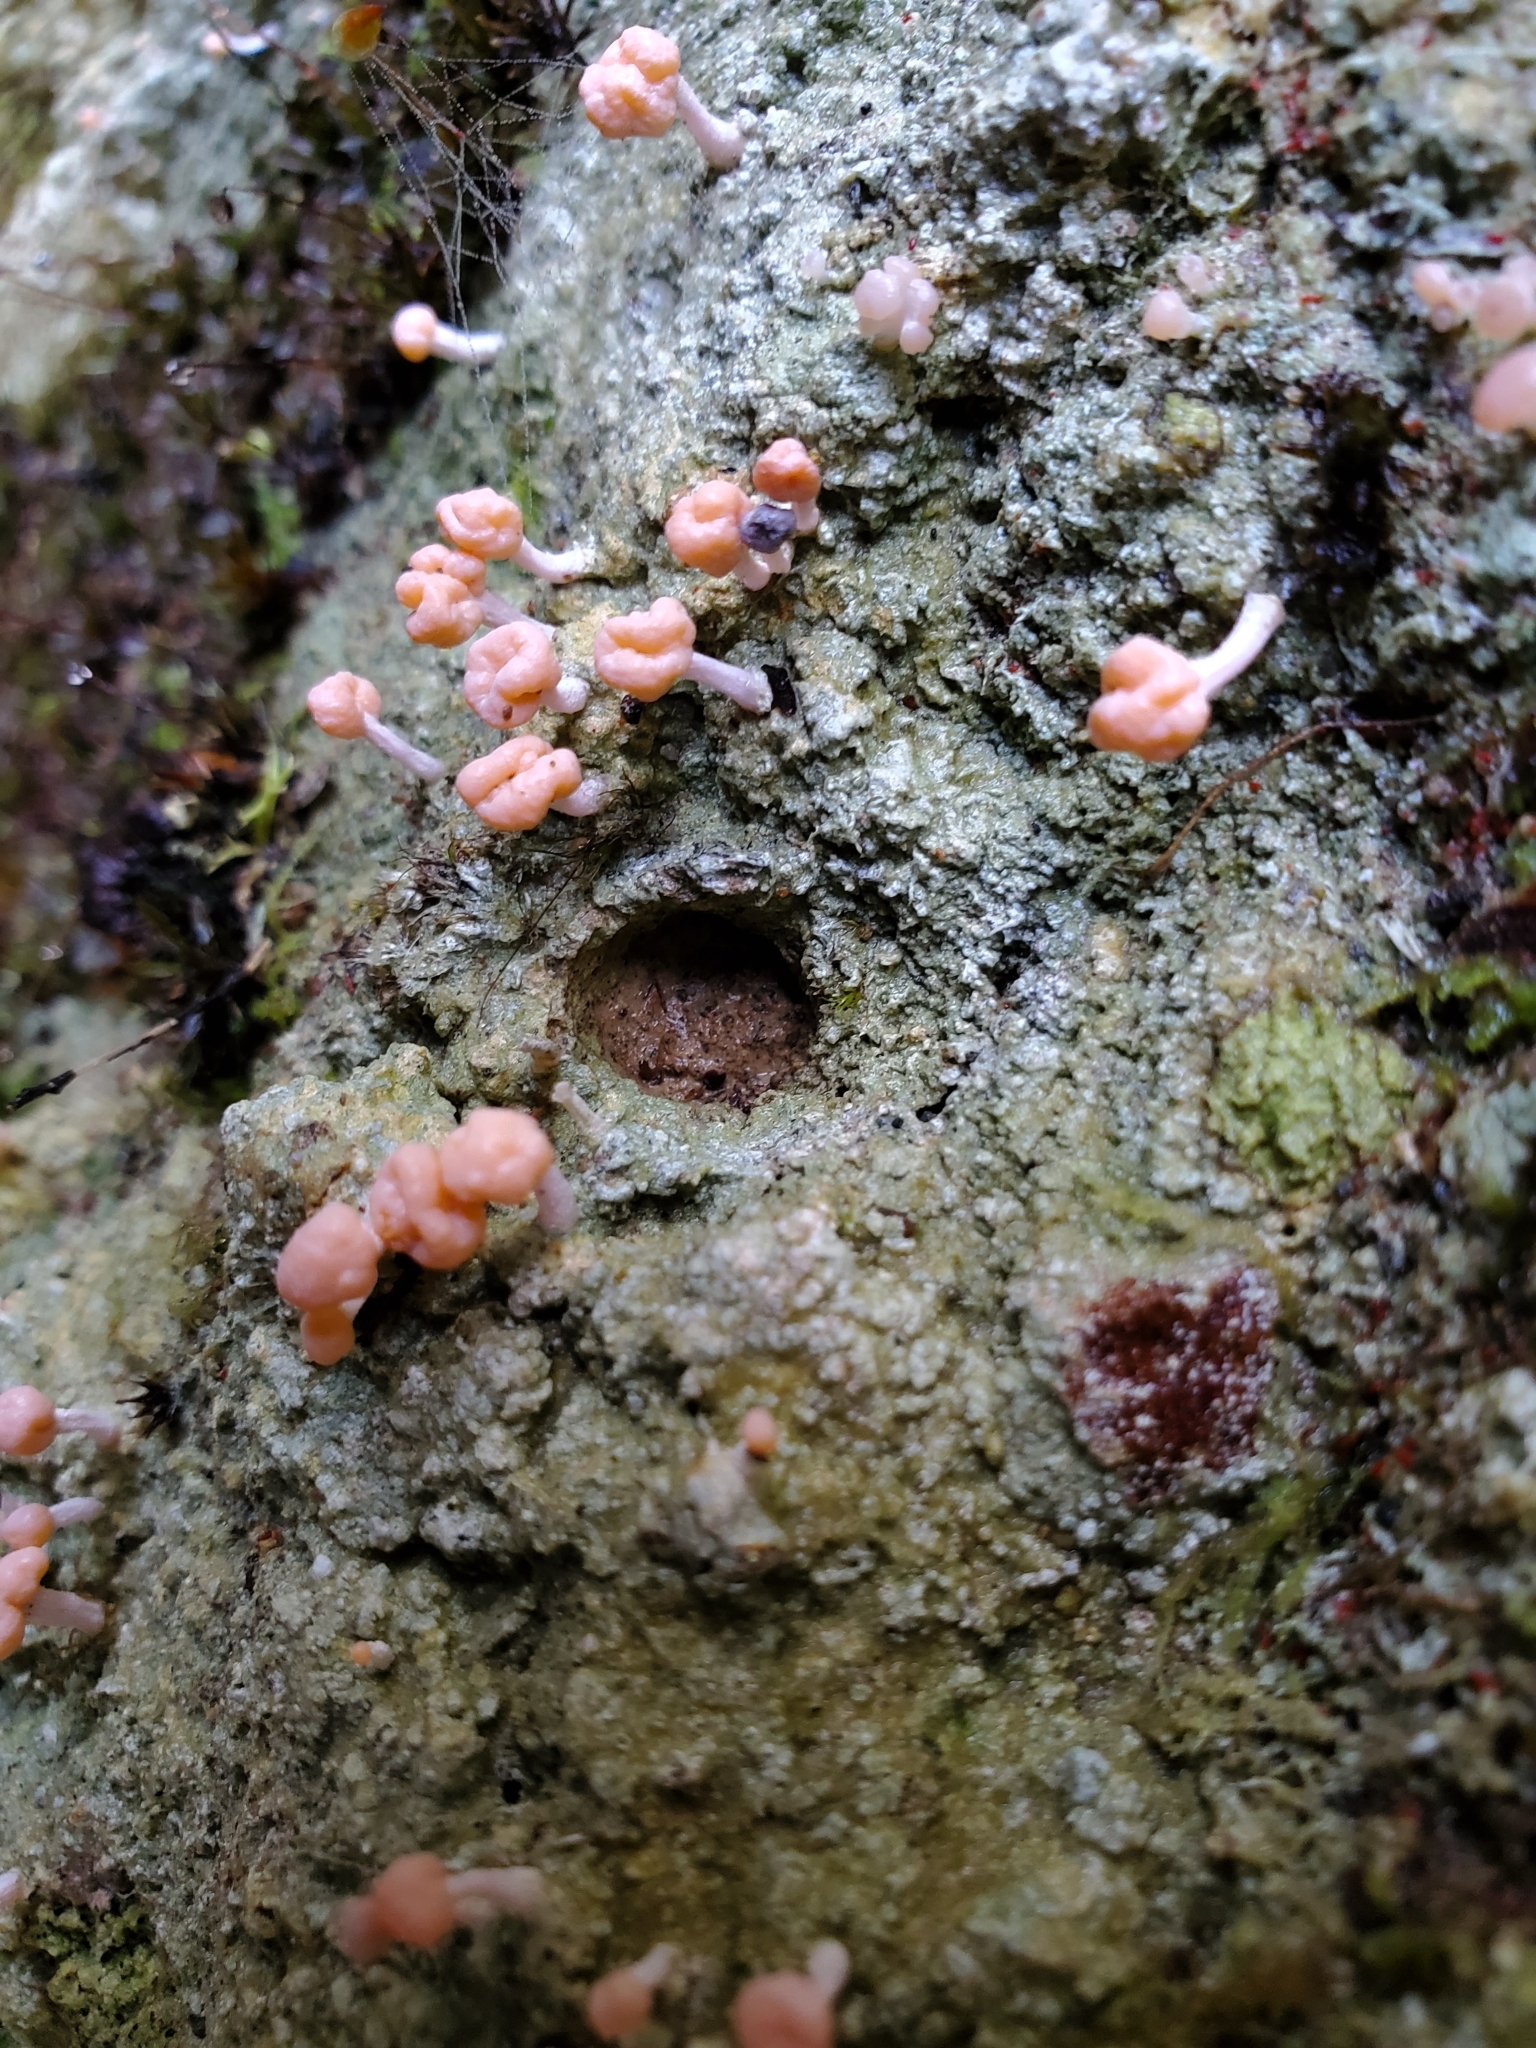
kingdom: Fungi
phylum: Ascomycota
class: Lecanoromycetes
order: Pertusariales
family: Icmadophilaceae
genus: Dibaeis
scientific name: Dibaeis arcuata
